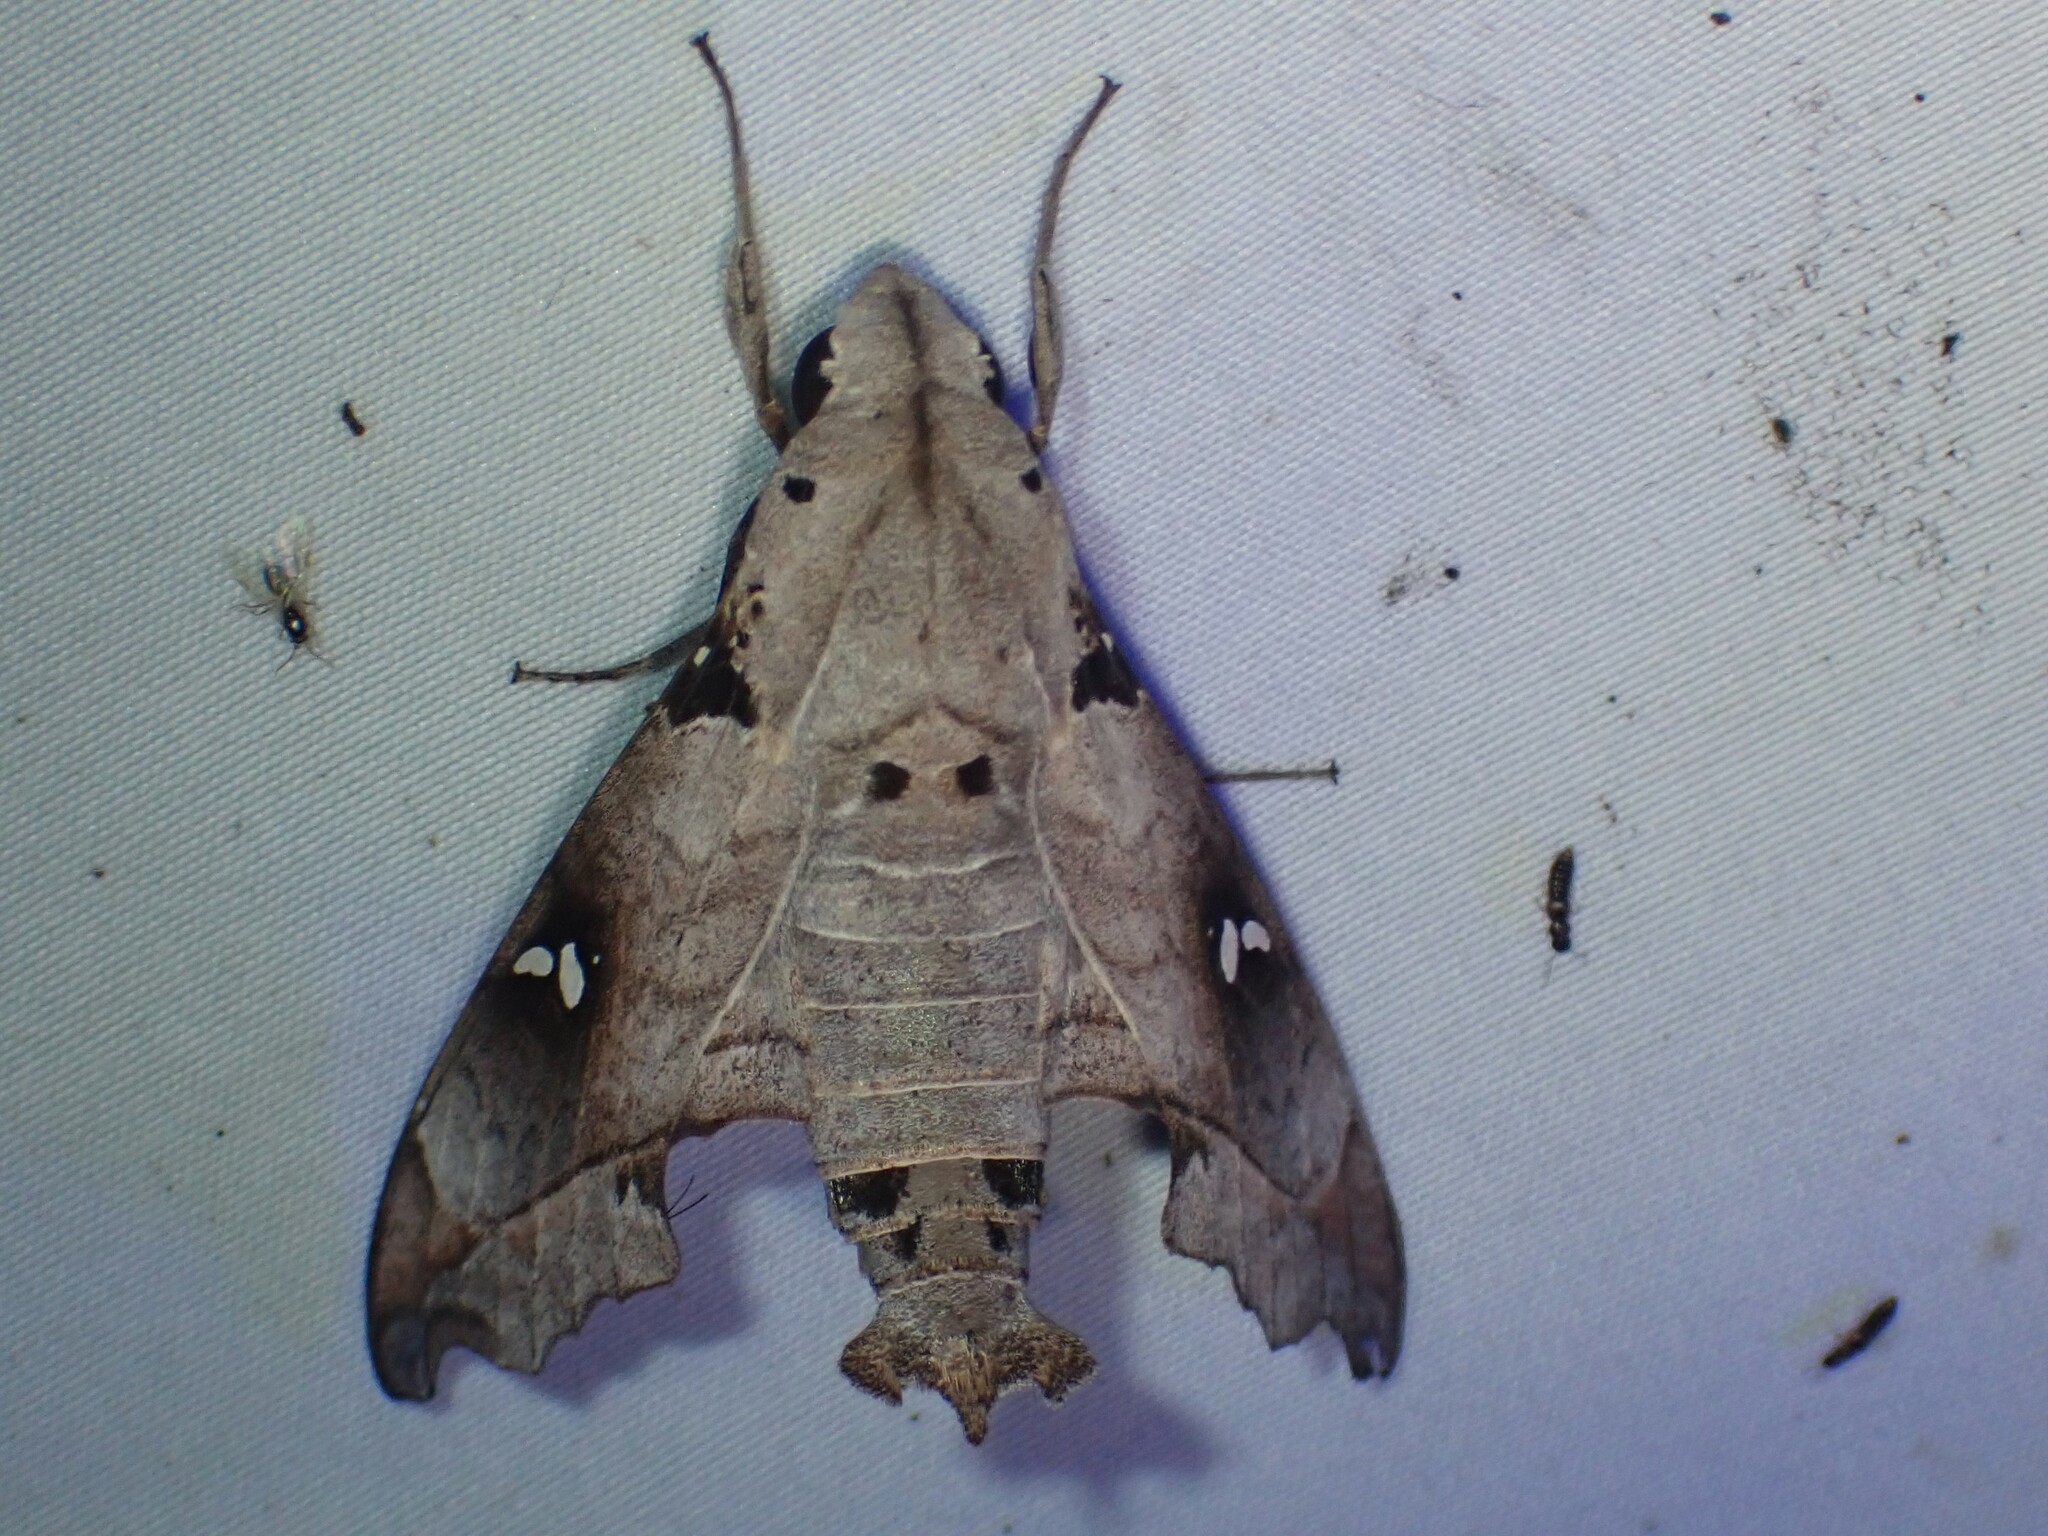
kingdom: Animalia
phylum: Arthropoda
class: Insecta
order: Lepidoptera
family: Sphingidae
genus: Madoryx
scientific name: Madoryx oiclus
